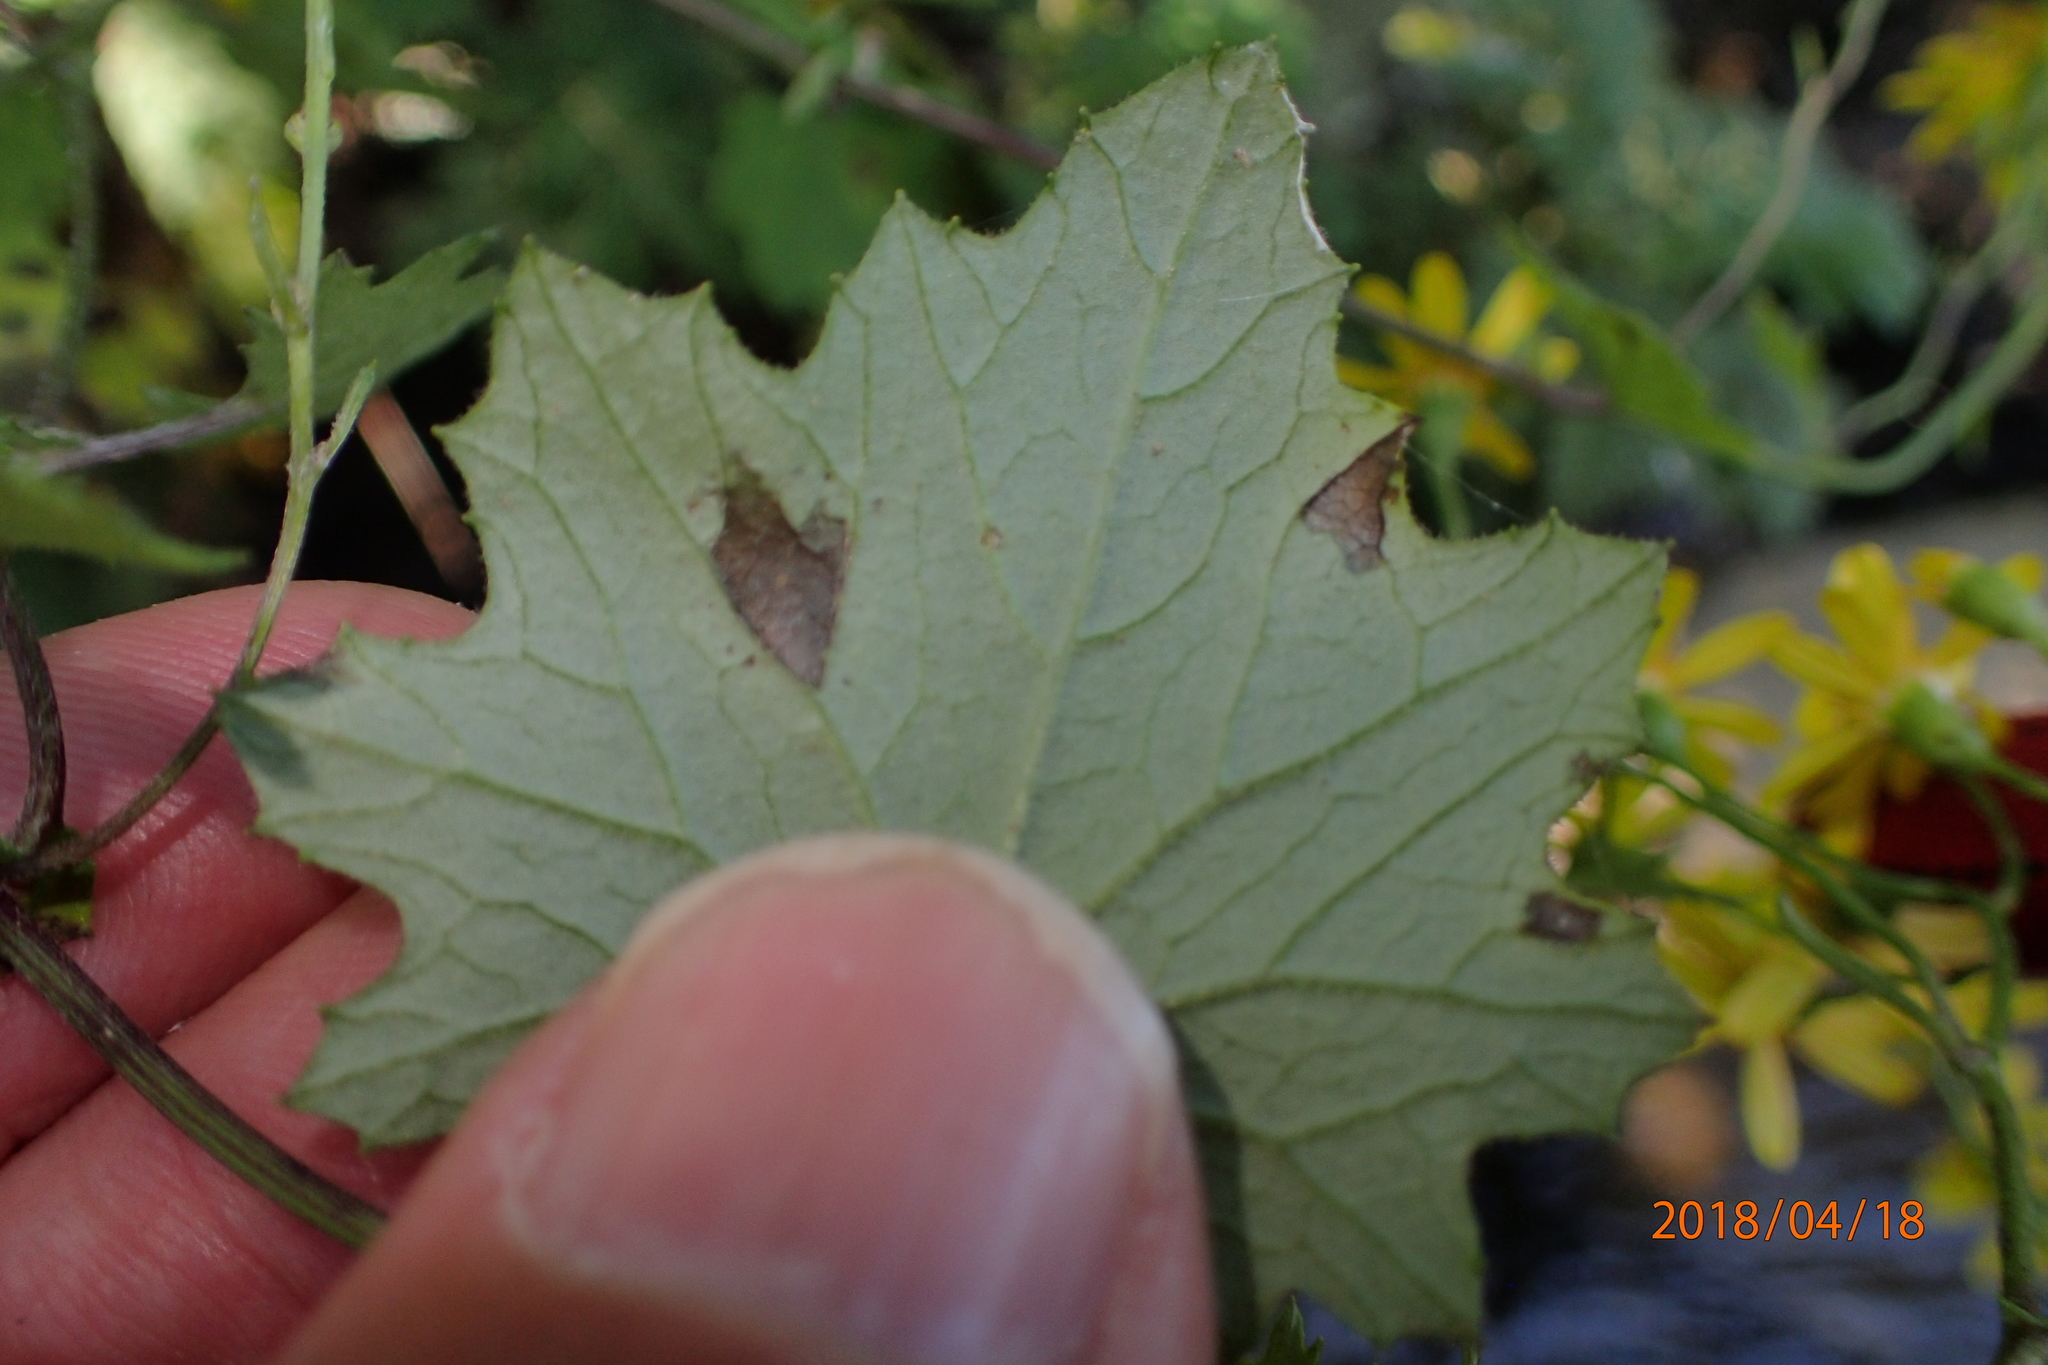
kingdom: Plantae
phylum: Tracheophyta
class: Magnoliopsida
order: Asterales
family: Asteraceae
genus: Cineraria
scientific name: Cineraria glandulosa
